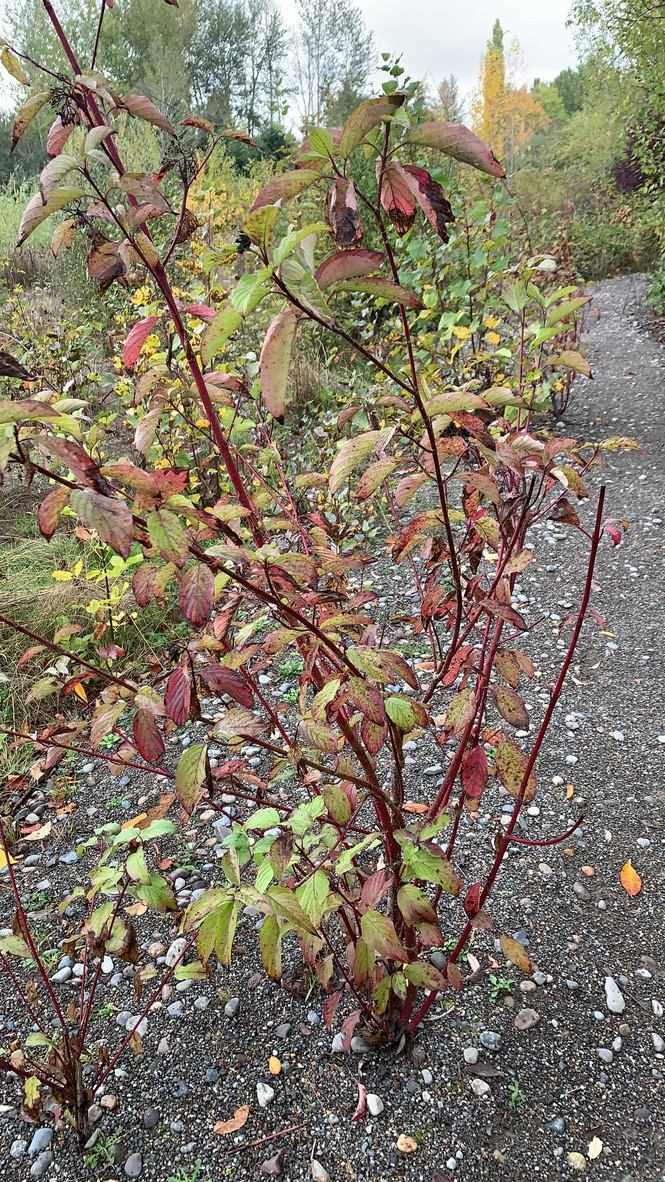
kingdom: Plantae
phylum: Tracheophyta
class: Magnoliopsida
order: Cornales
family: Cornaceae
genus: Cornus
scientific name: Cornus sericea
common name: Red-osier dogwood
